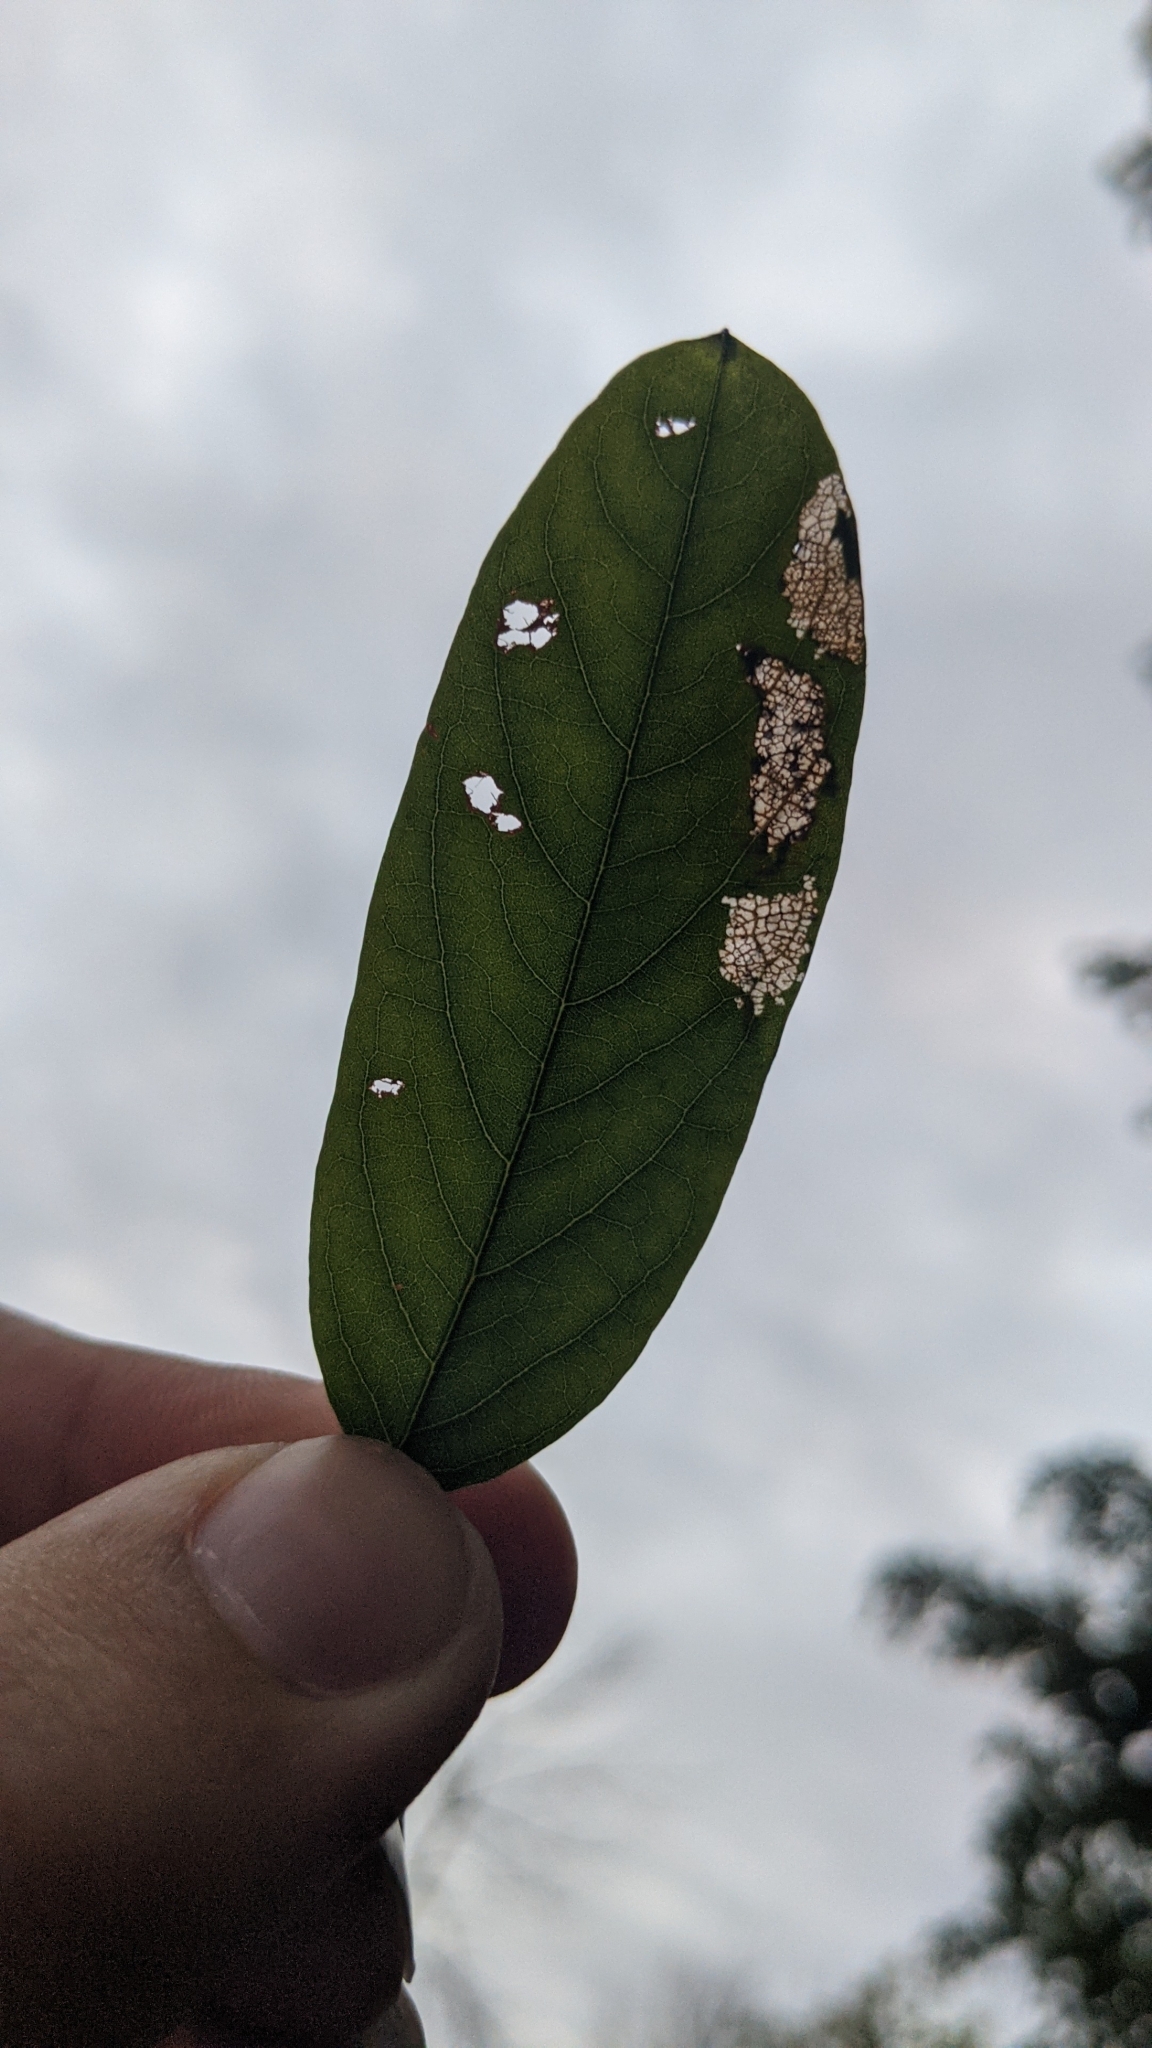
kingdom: Animalia
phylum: Arthropoda
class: Insecta
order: Lepidoptera
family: Gracillariidae
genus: Parectopa
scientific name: Parectopa robiniella
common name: Locust digitate leafminer
